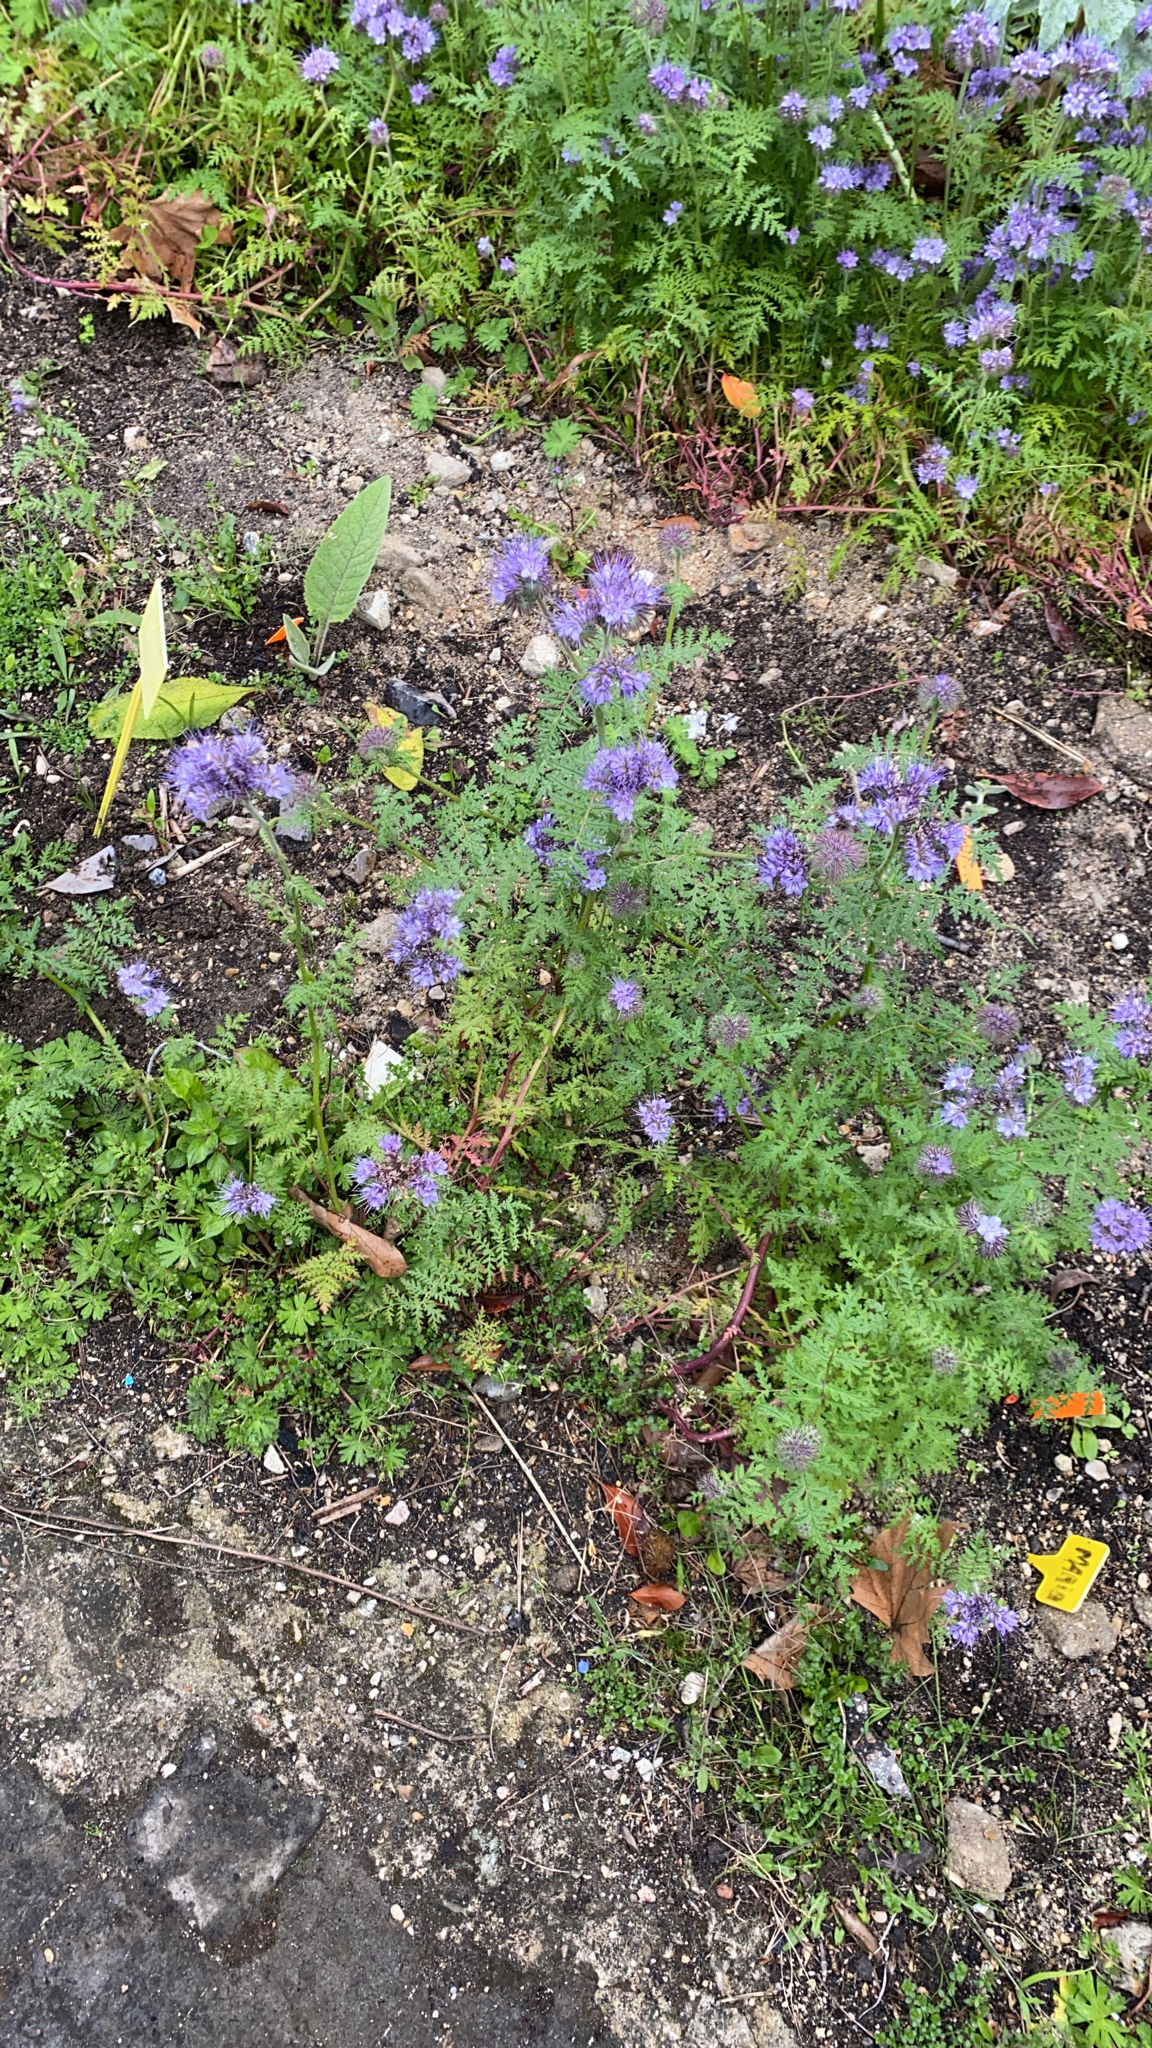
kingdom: Plantae
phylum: Tracheophyta
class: Magnoliopsida
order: Boraginales
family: Hydrophyllaceae
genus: Phacelia
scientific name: Phacelia tanacetifolia
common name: Phacelia
